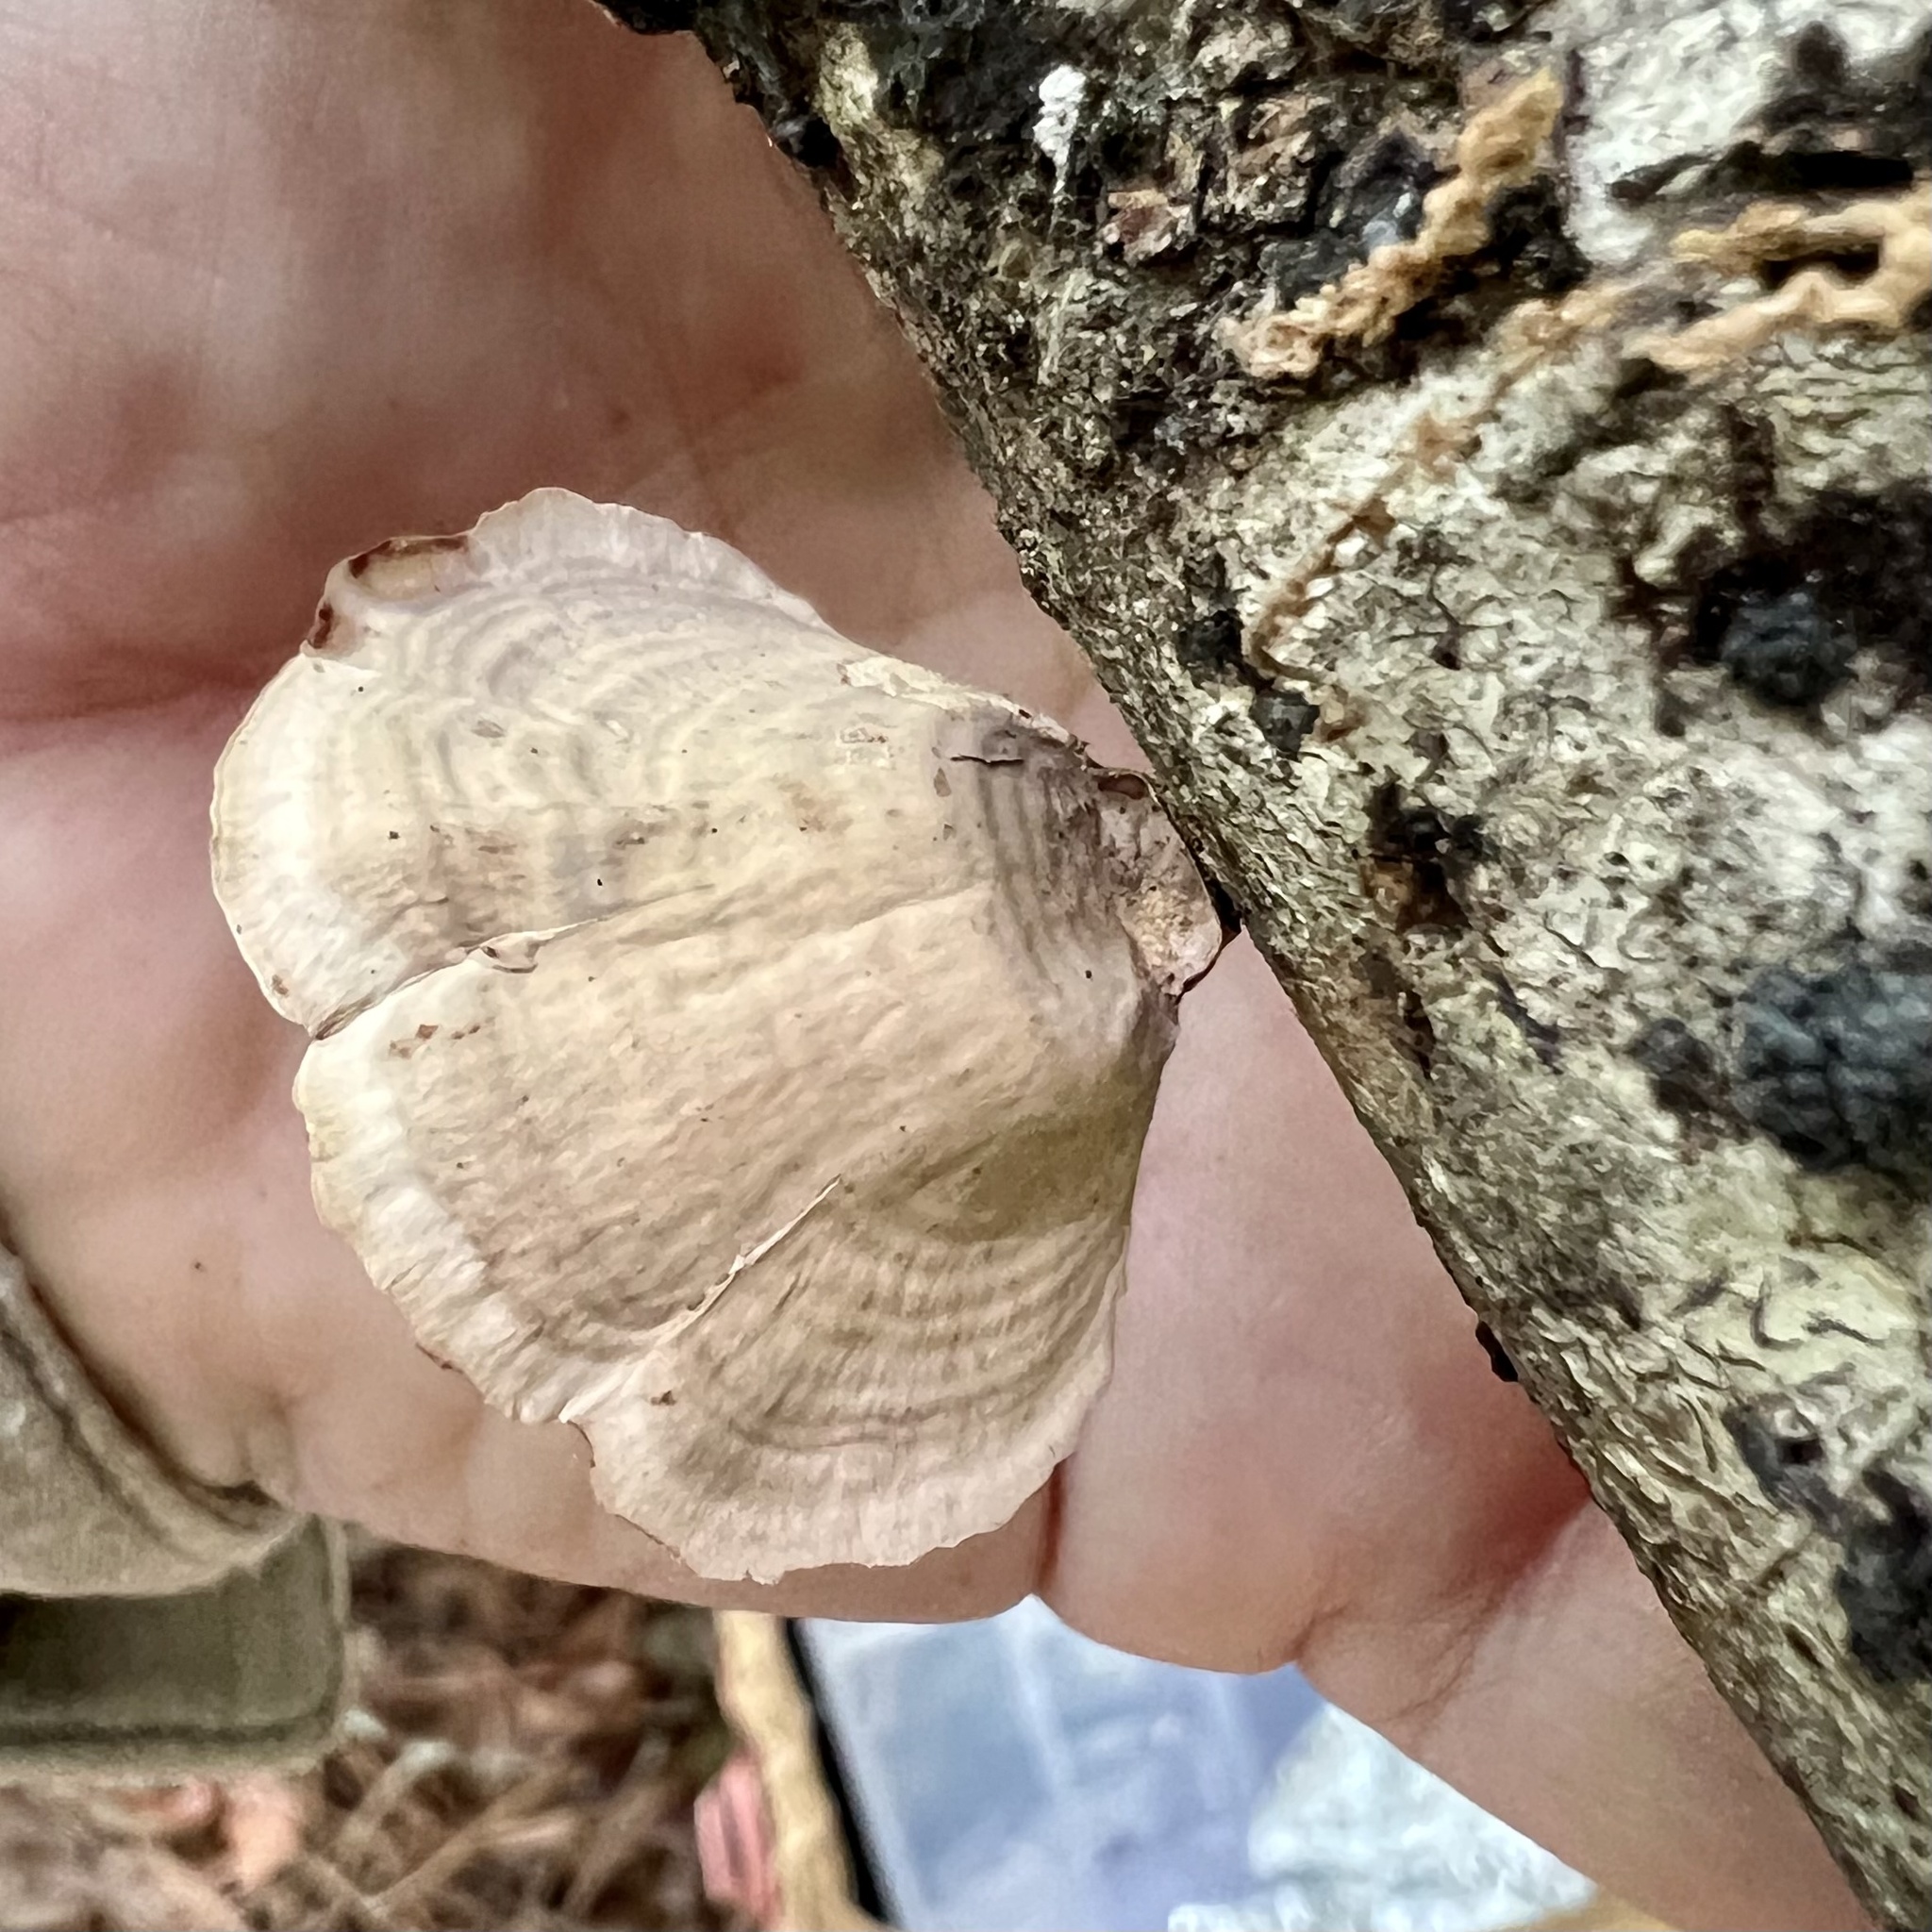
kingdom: Fungi
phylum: Basidiomycota
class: Agaricomycetes
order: Russulales
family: Stereaceae
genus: Stereum
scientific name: Stereum lobatum
